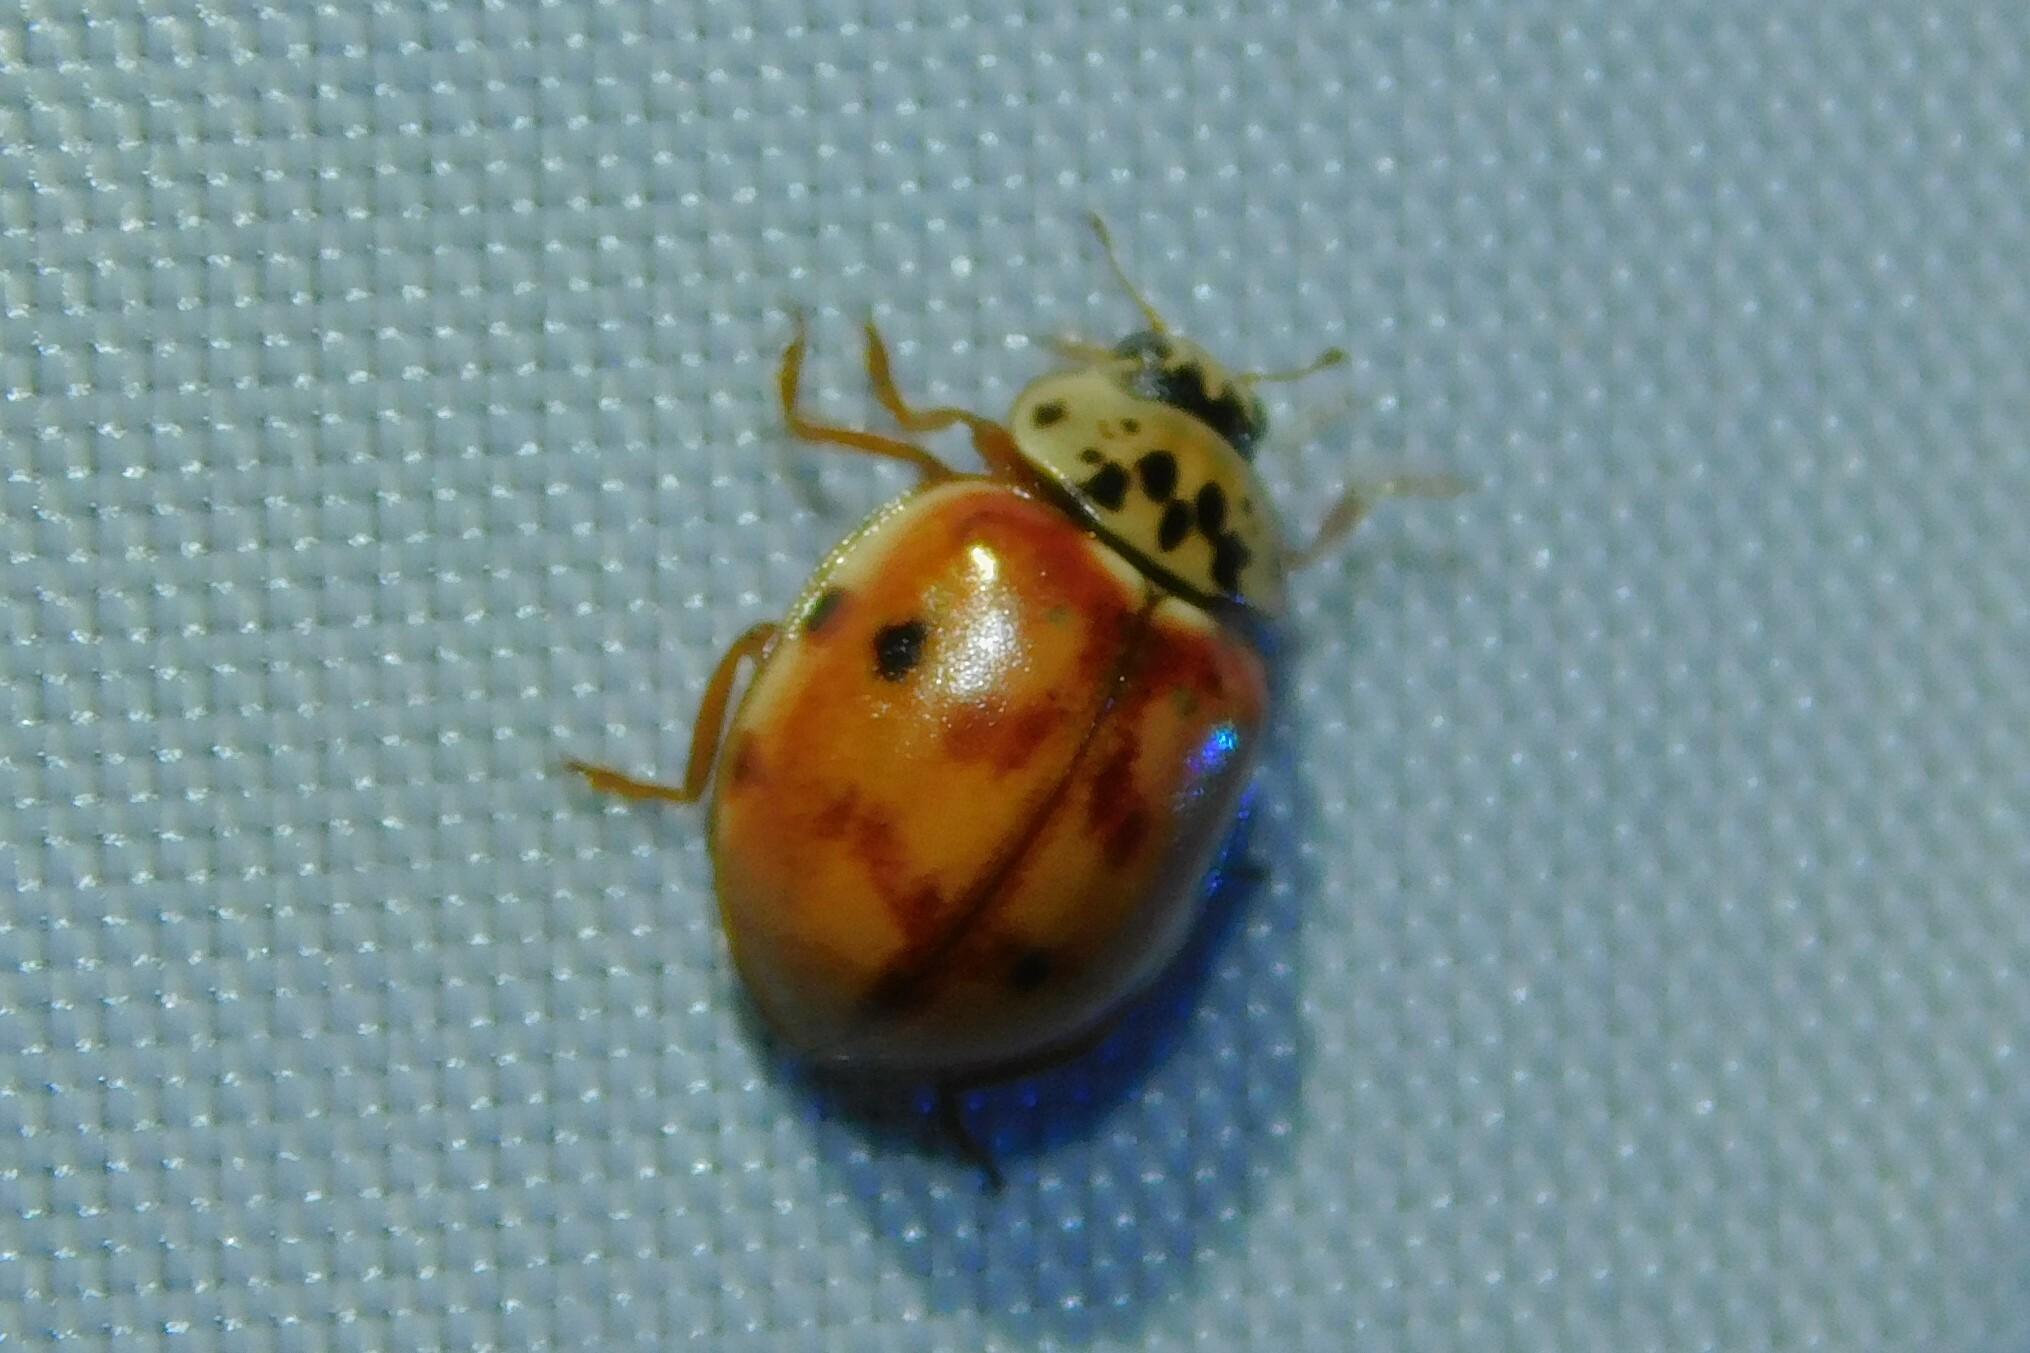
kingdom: Animalia
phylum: Arthropoda
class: Insecta
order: Coleoptera
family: Coccinellidae
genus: Harmonia
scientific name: Harmonia quadripunctata
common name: Cream-streaked ladybird
